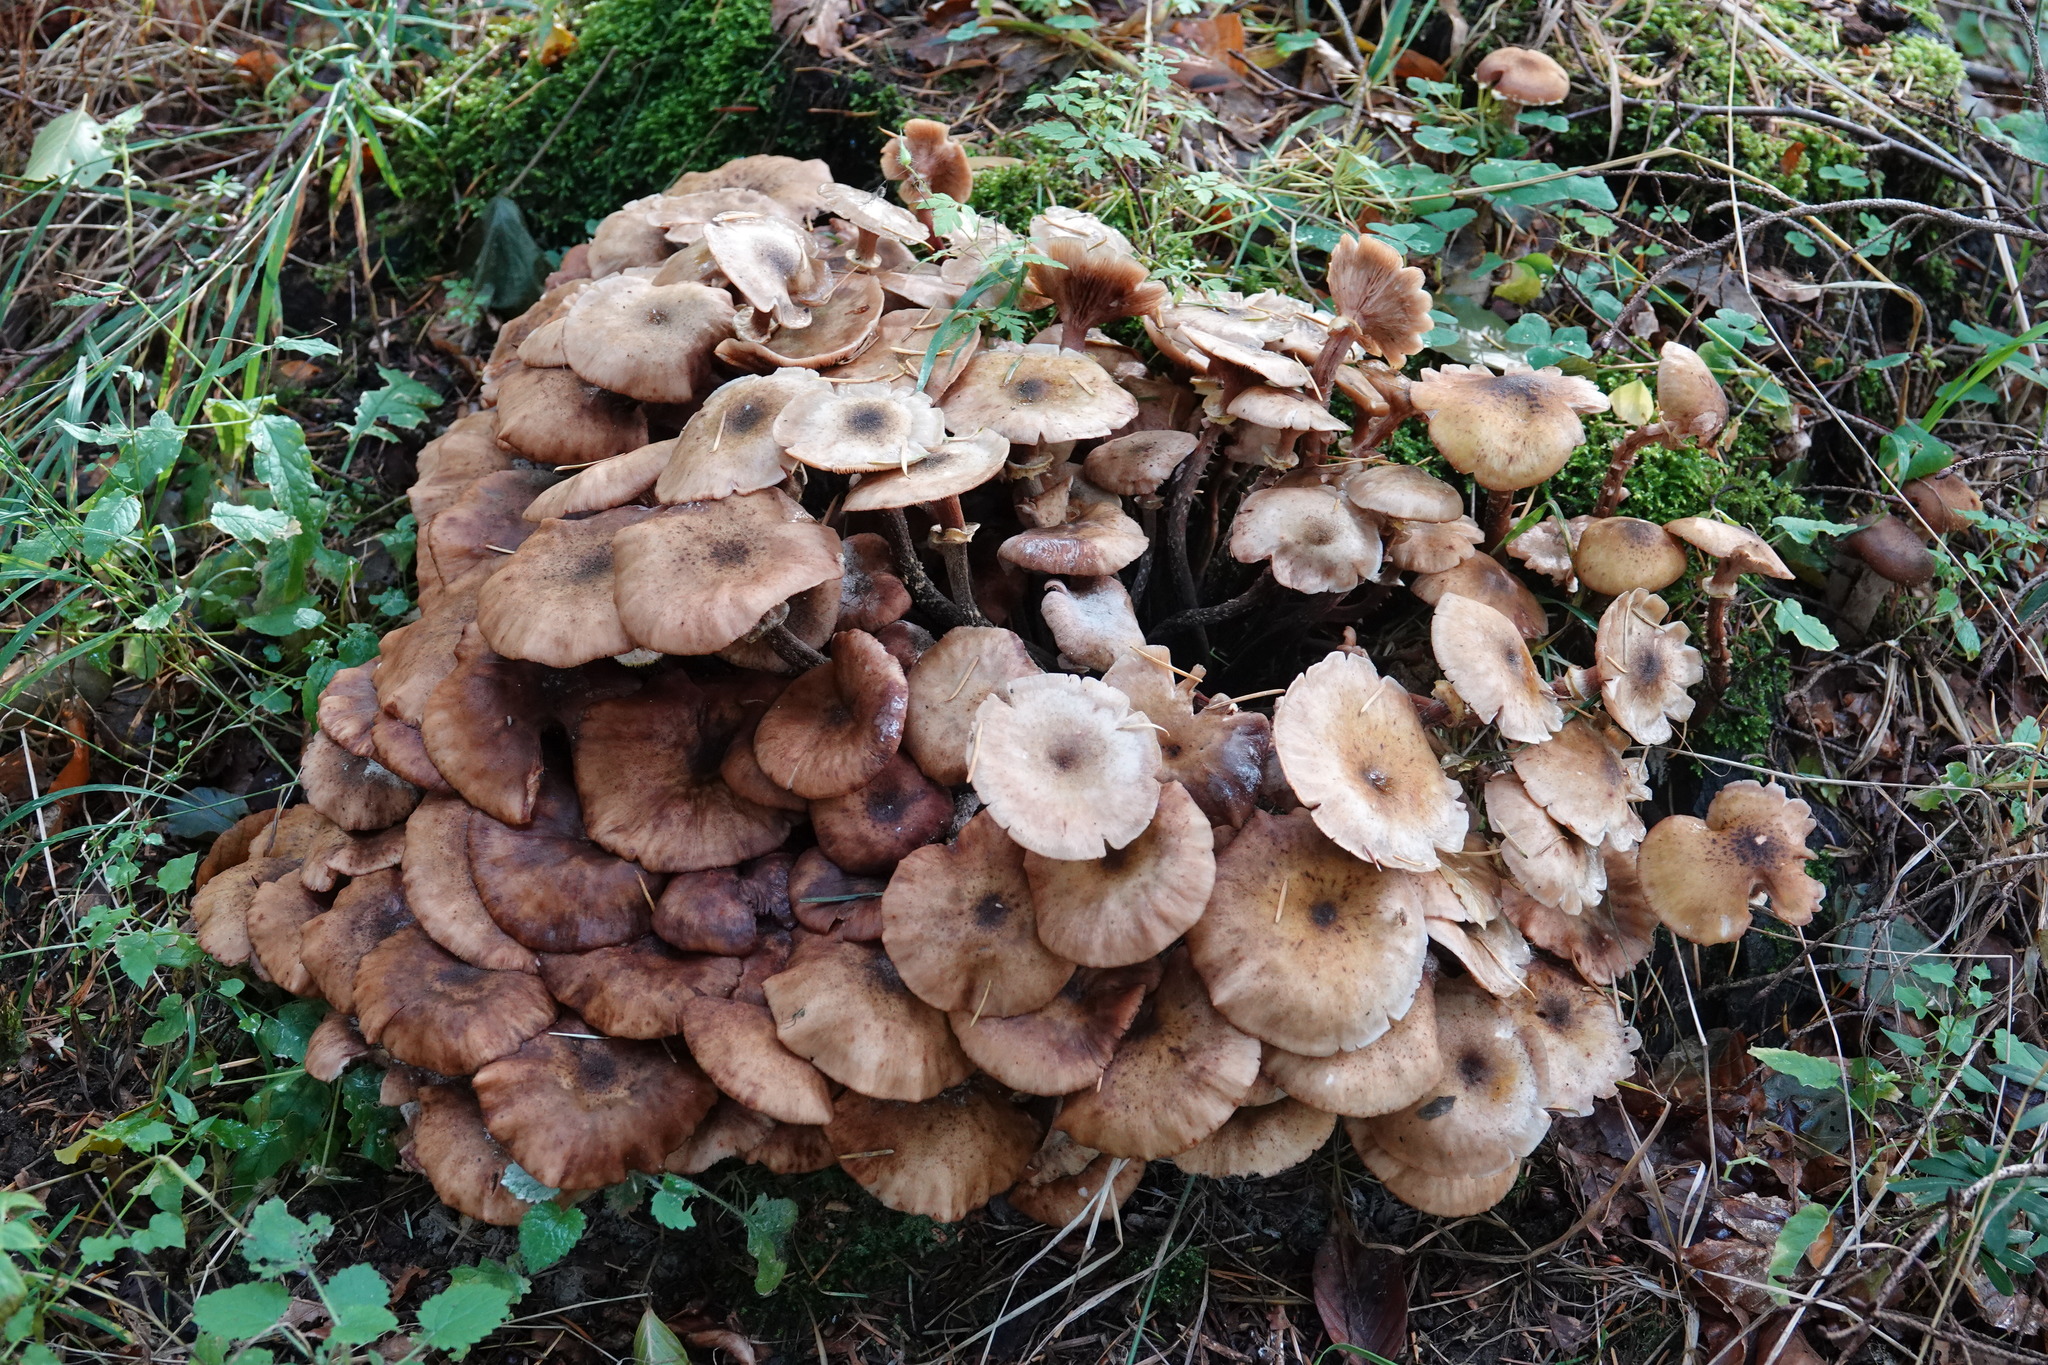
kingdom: Fungi
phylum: Basidiomycota
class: Agaricomycetes
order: Agaricales
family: Physalacriaceae
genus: Armillaria
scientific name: Armillaria mellea
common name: Honey fungus
